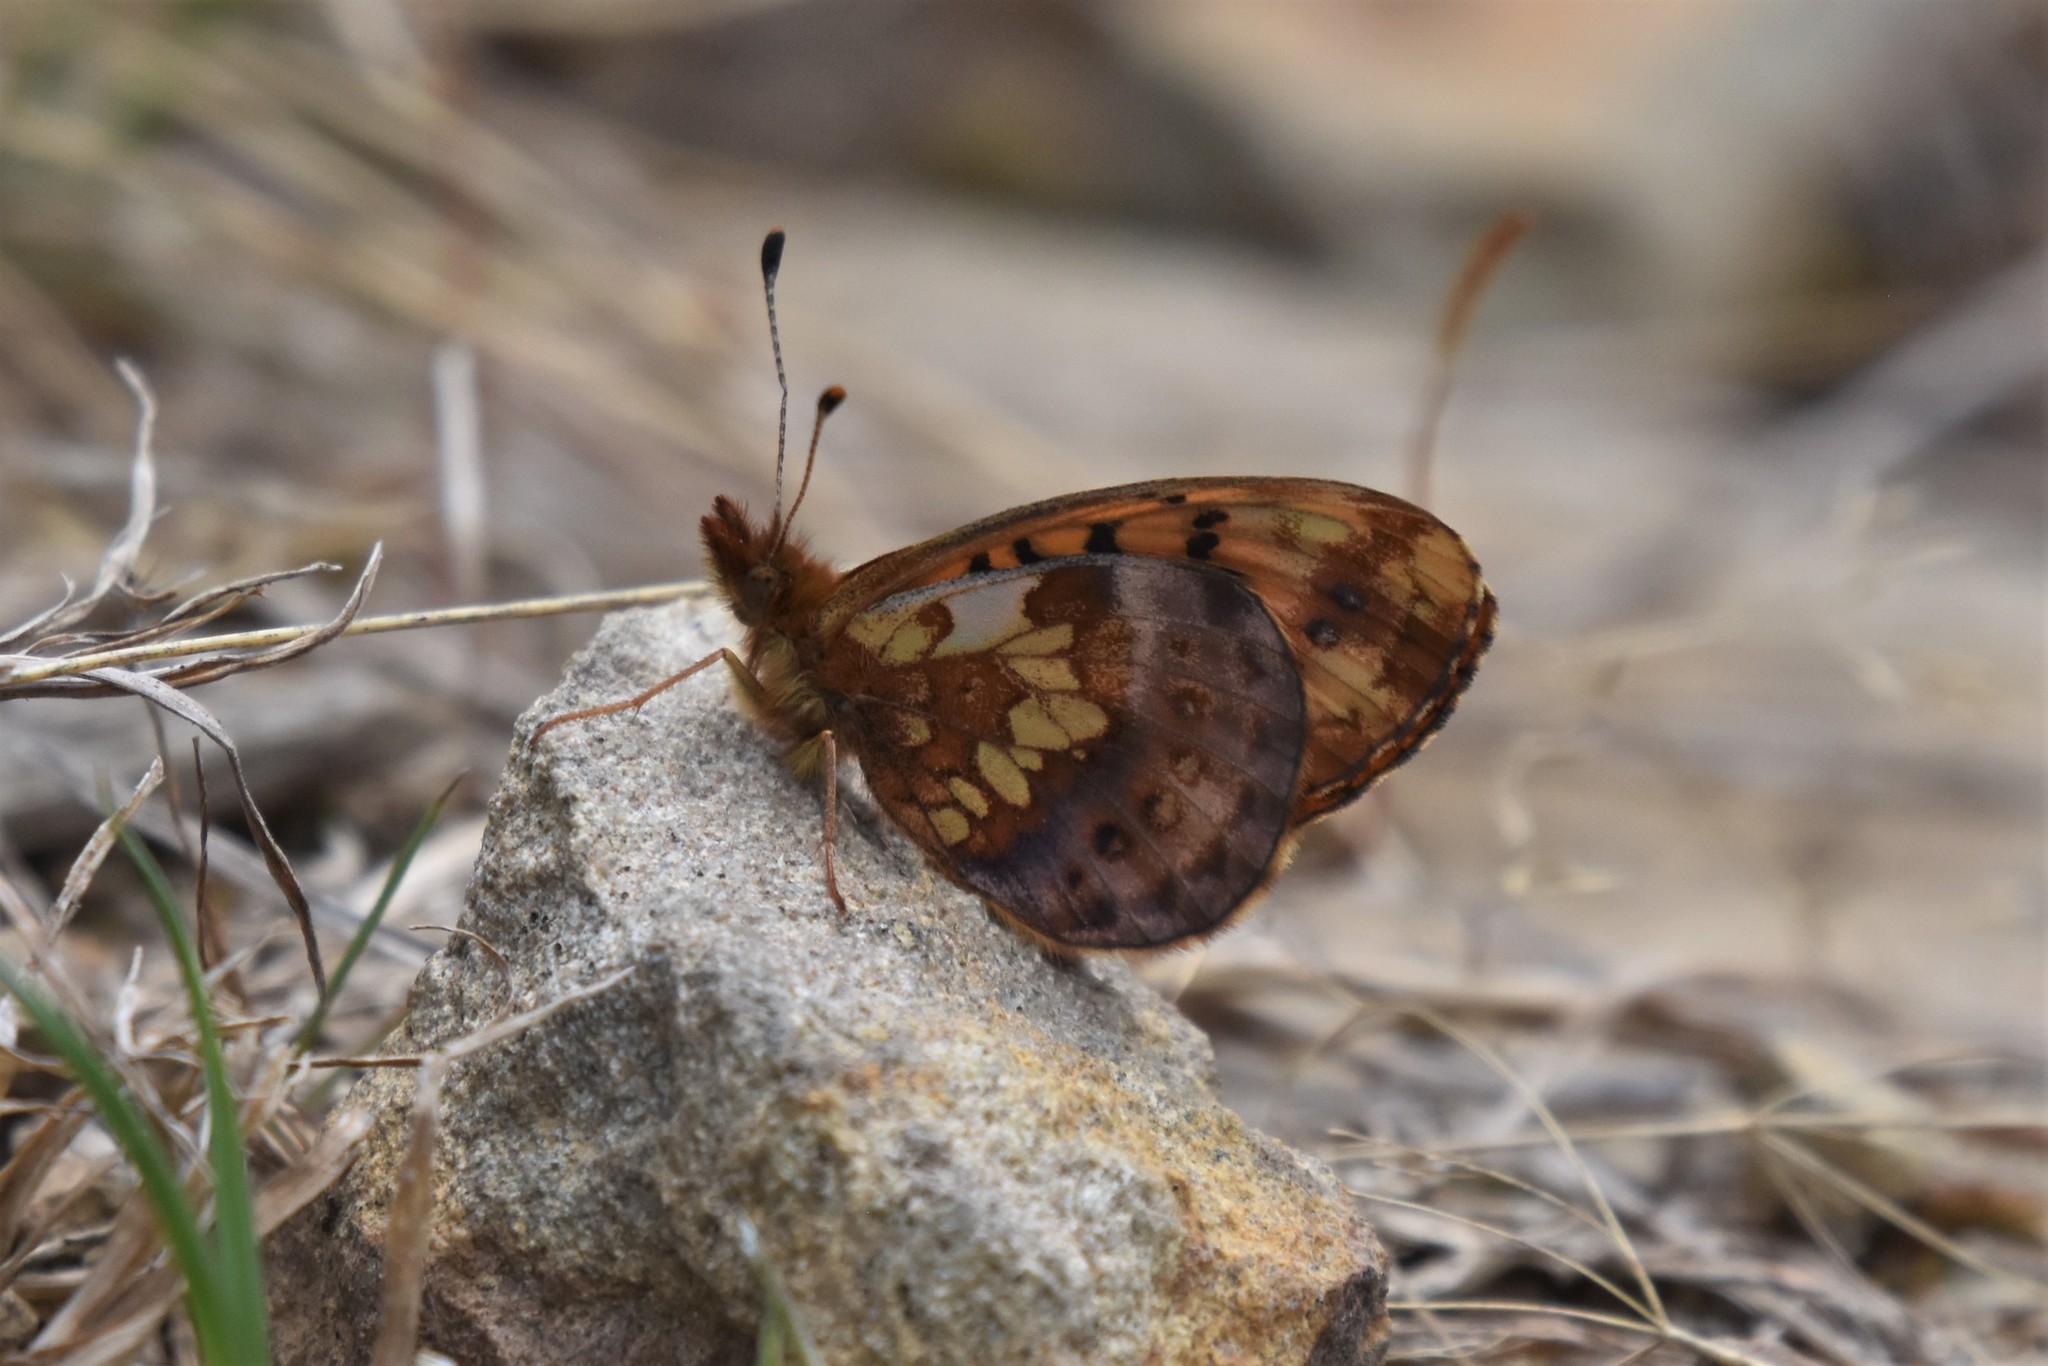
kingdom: Animalia
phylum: Arthropoda
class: Insecta
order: Lepidoptera
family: Nymphalidae
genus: Boloria
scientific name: Boloria epithore
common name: Pacific fritillary
